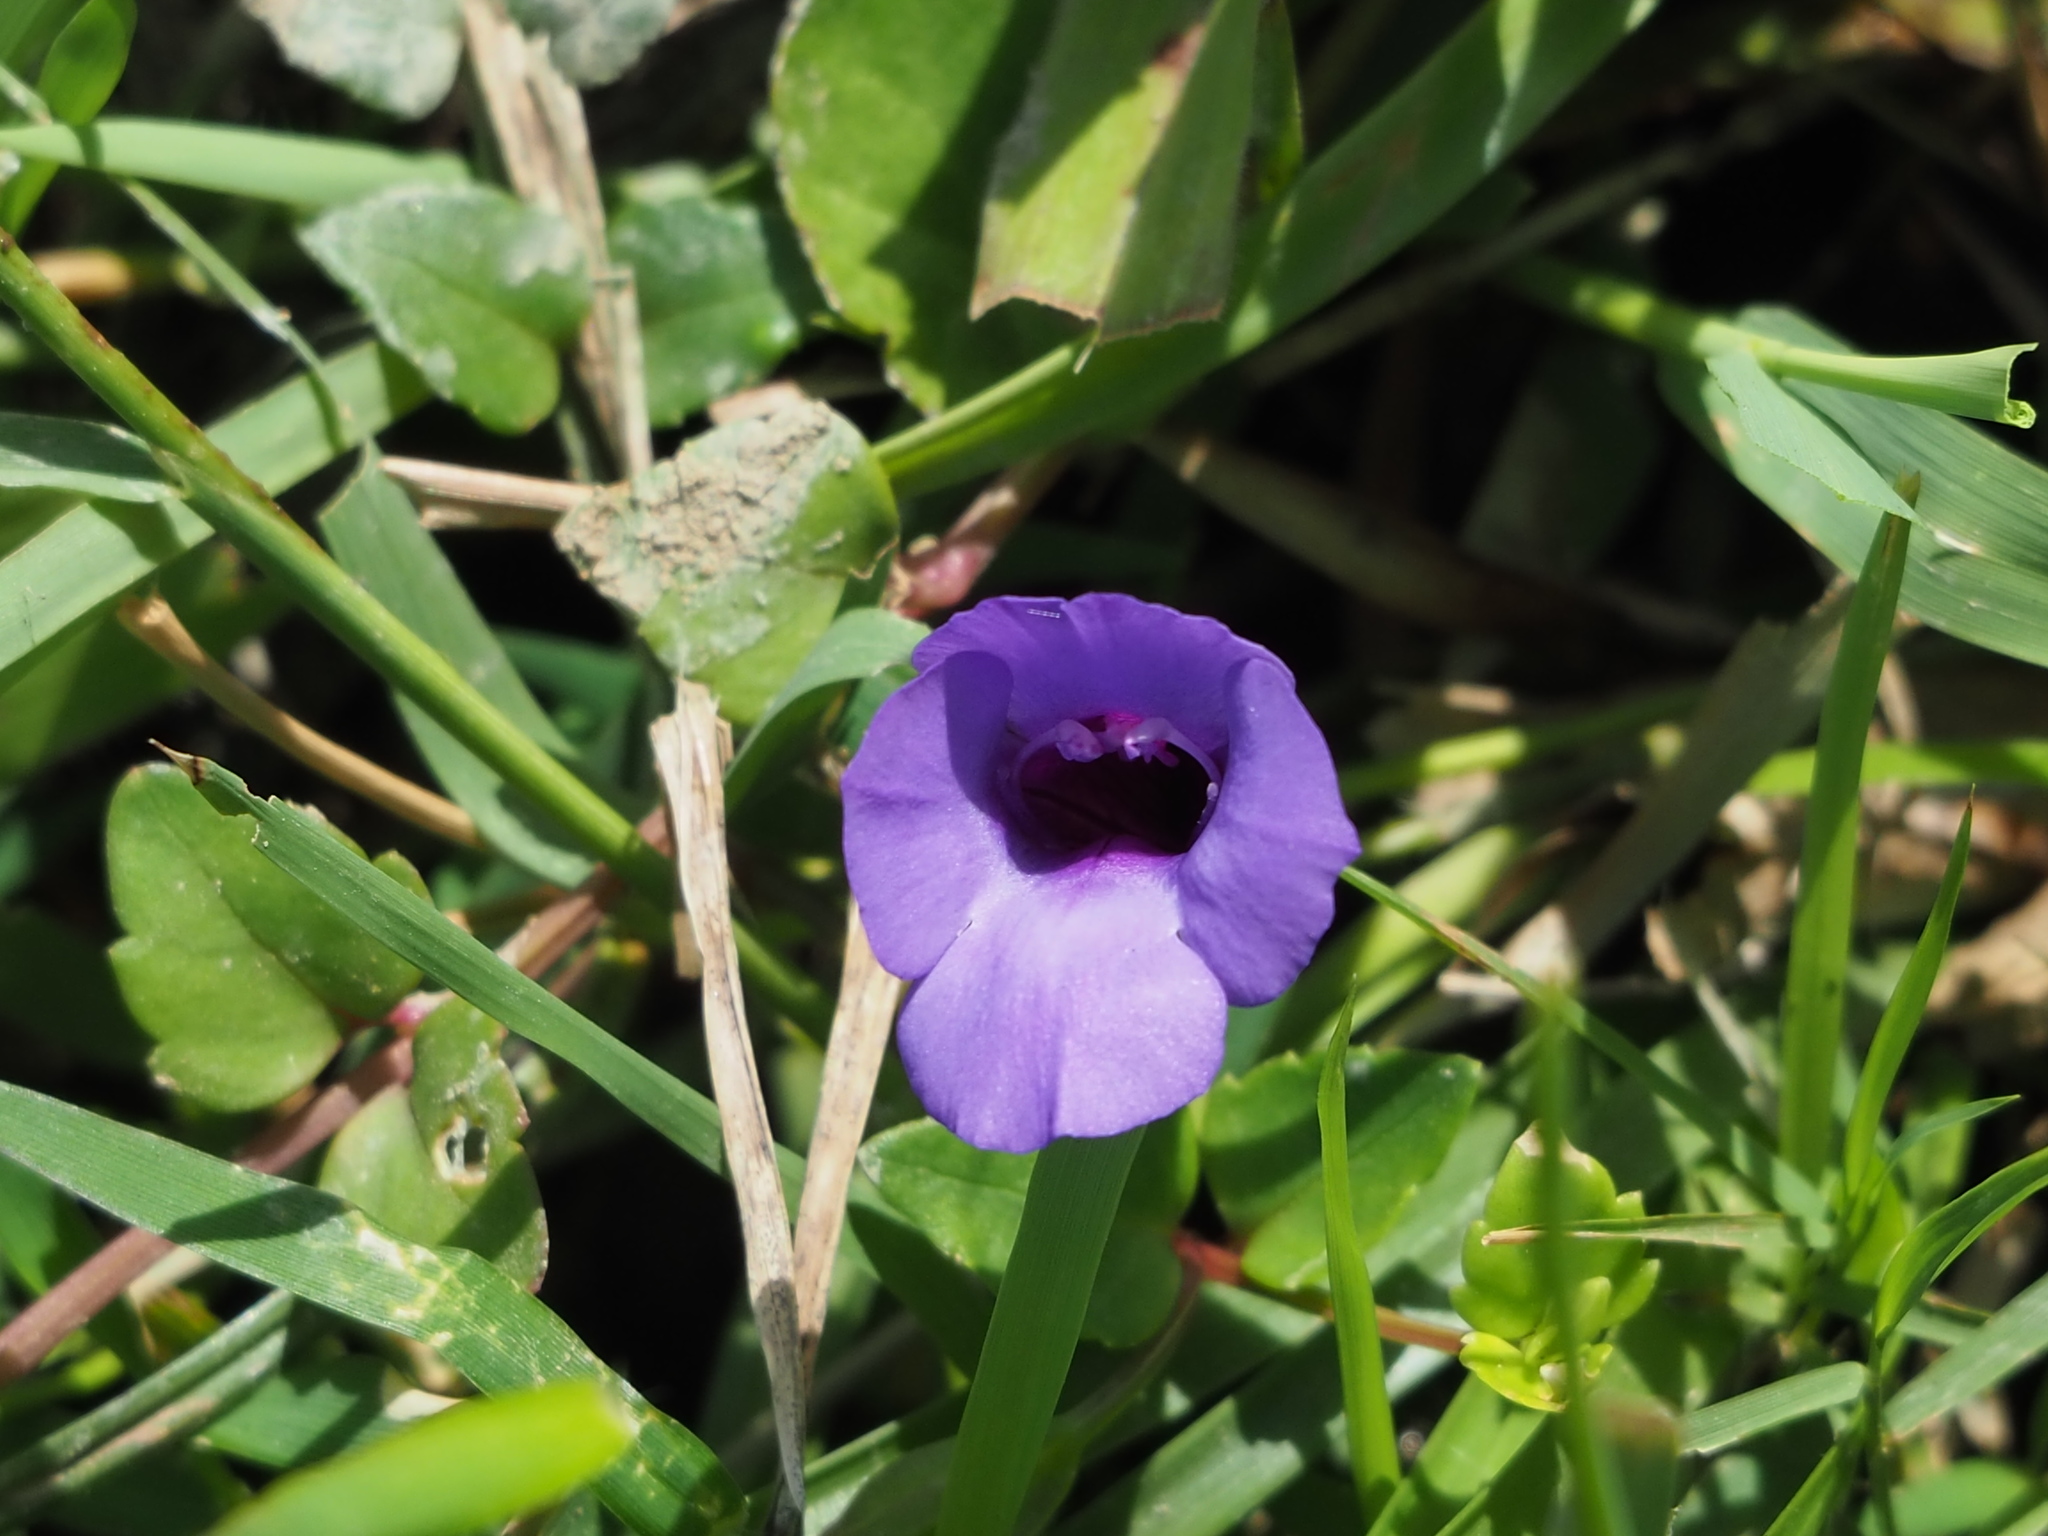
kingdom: Plantae
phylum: Tracheophyta
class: Magnoliopsida
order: Lamiales
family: Linderniaceae
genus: Torenia
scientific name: Torenia concolor
